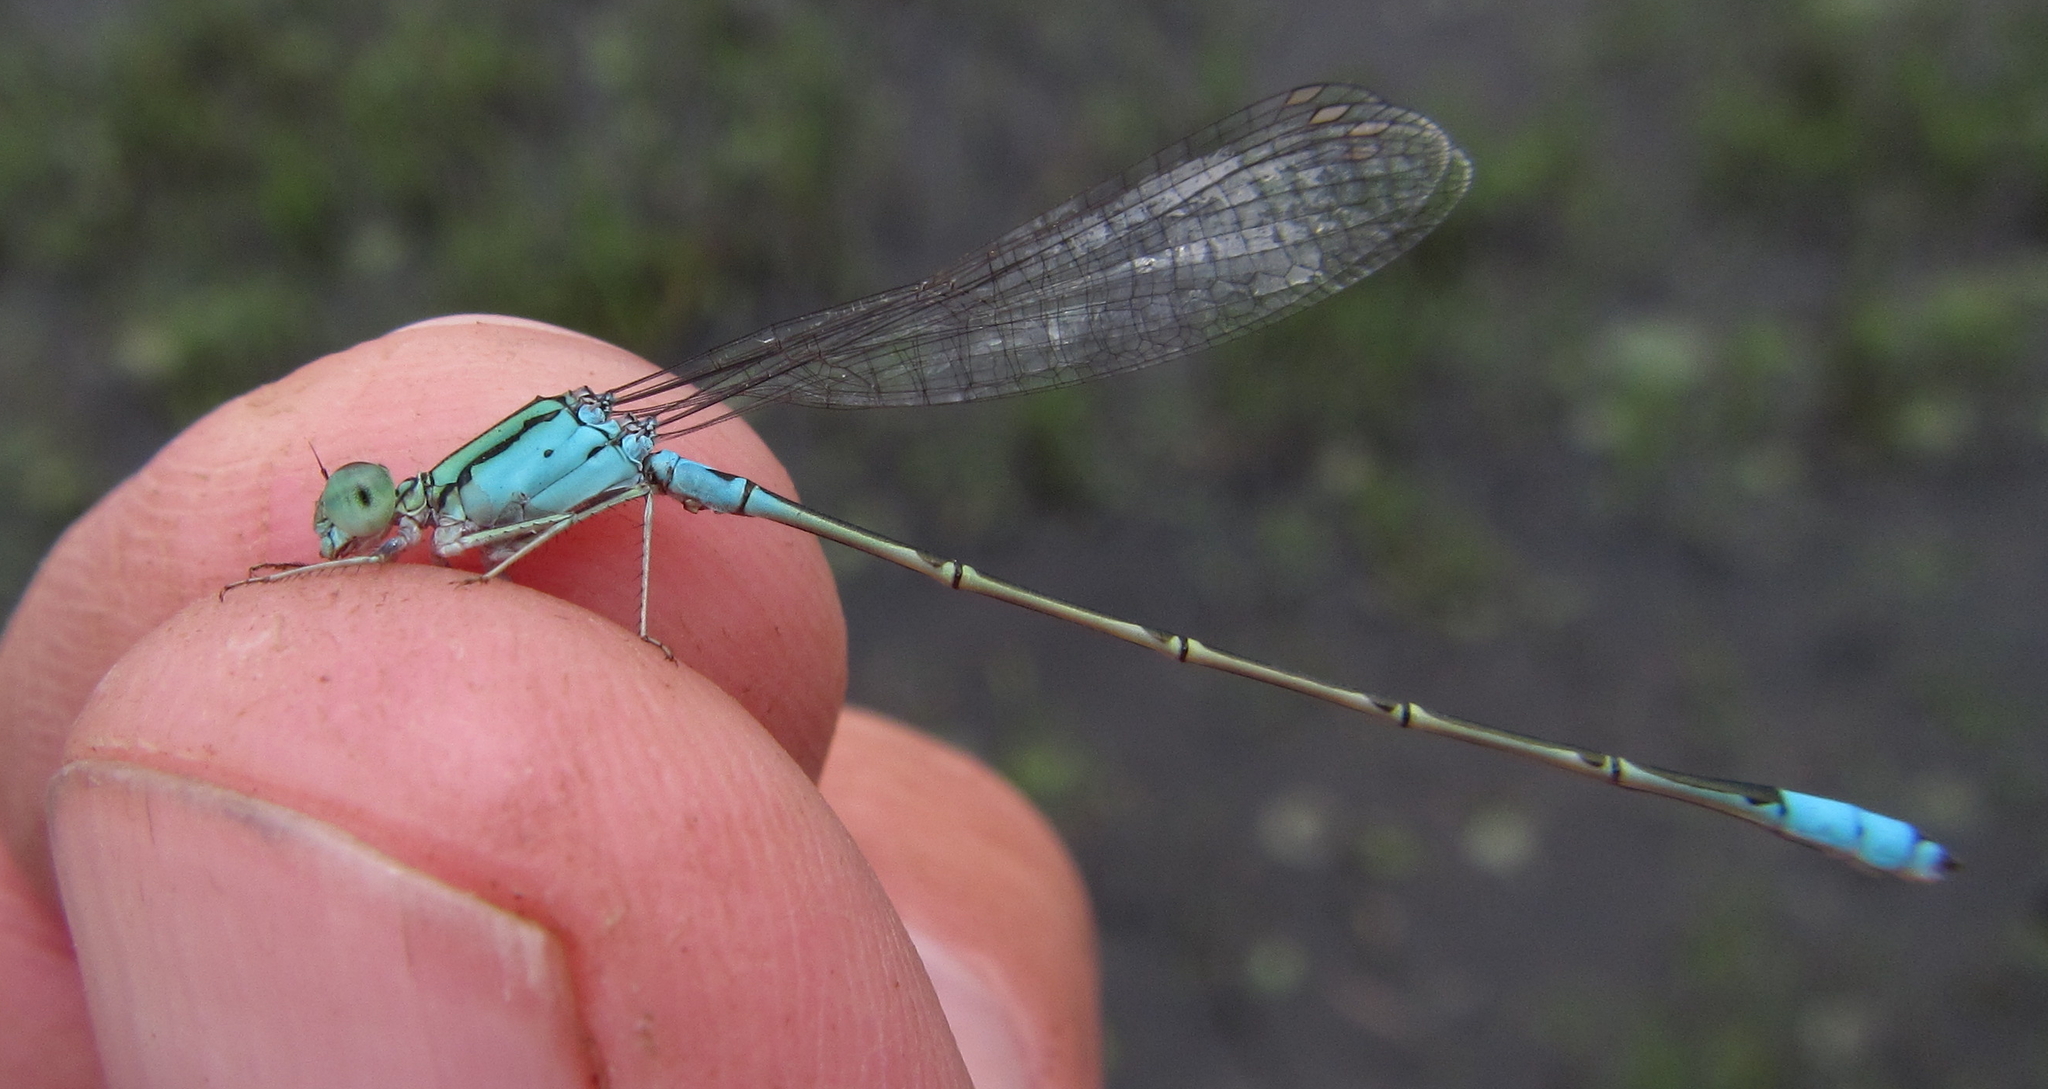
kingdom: Animalia
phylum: Arthropoda
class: Insecta
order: Odonata
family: Coenagrionidae
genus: Pseudagrion
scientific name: Pseudagrion coeleste
